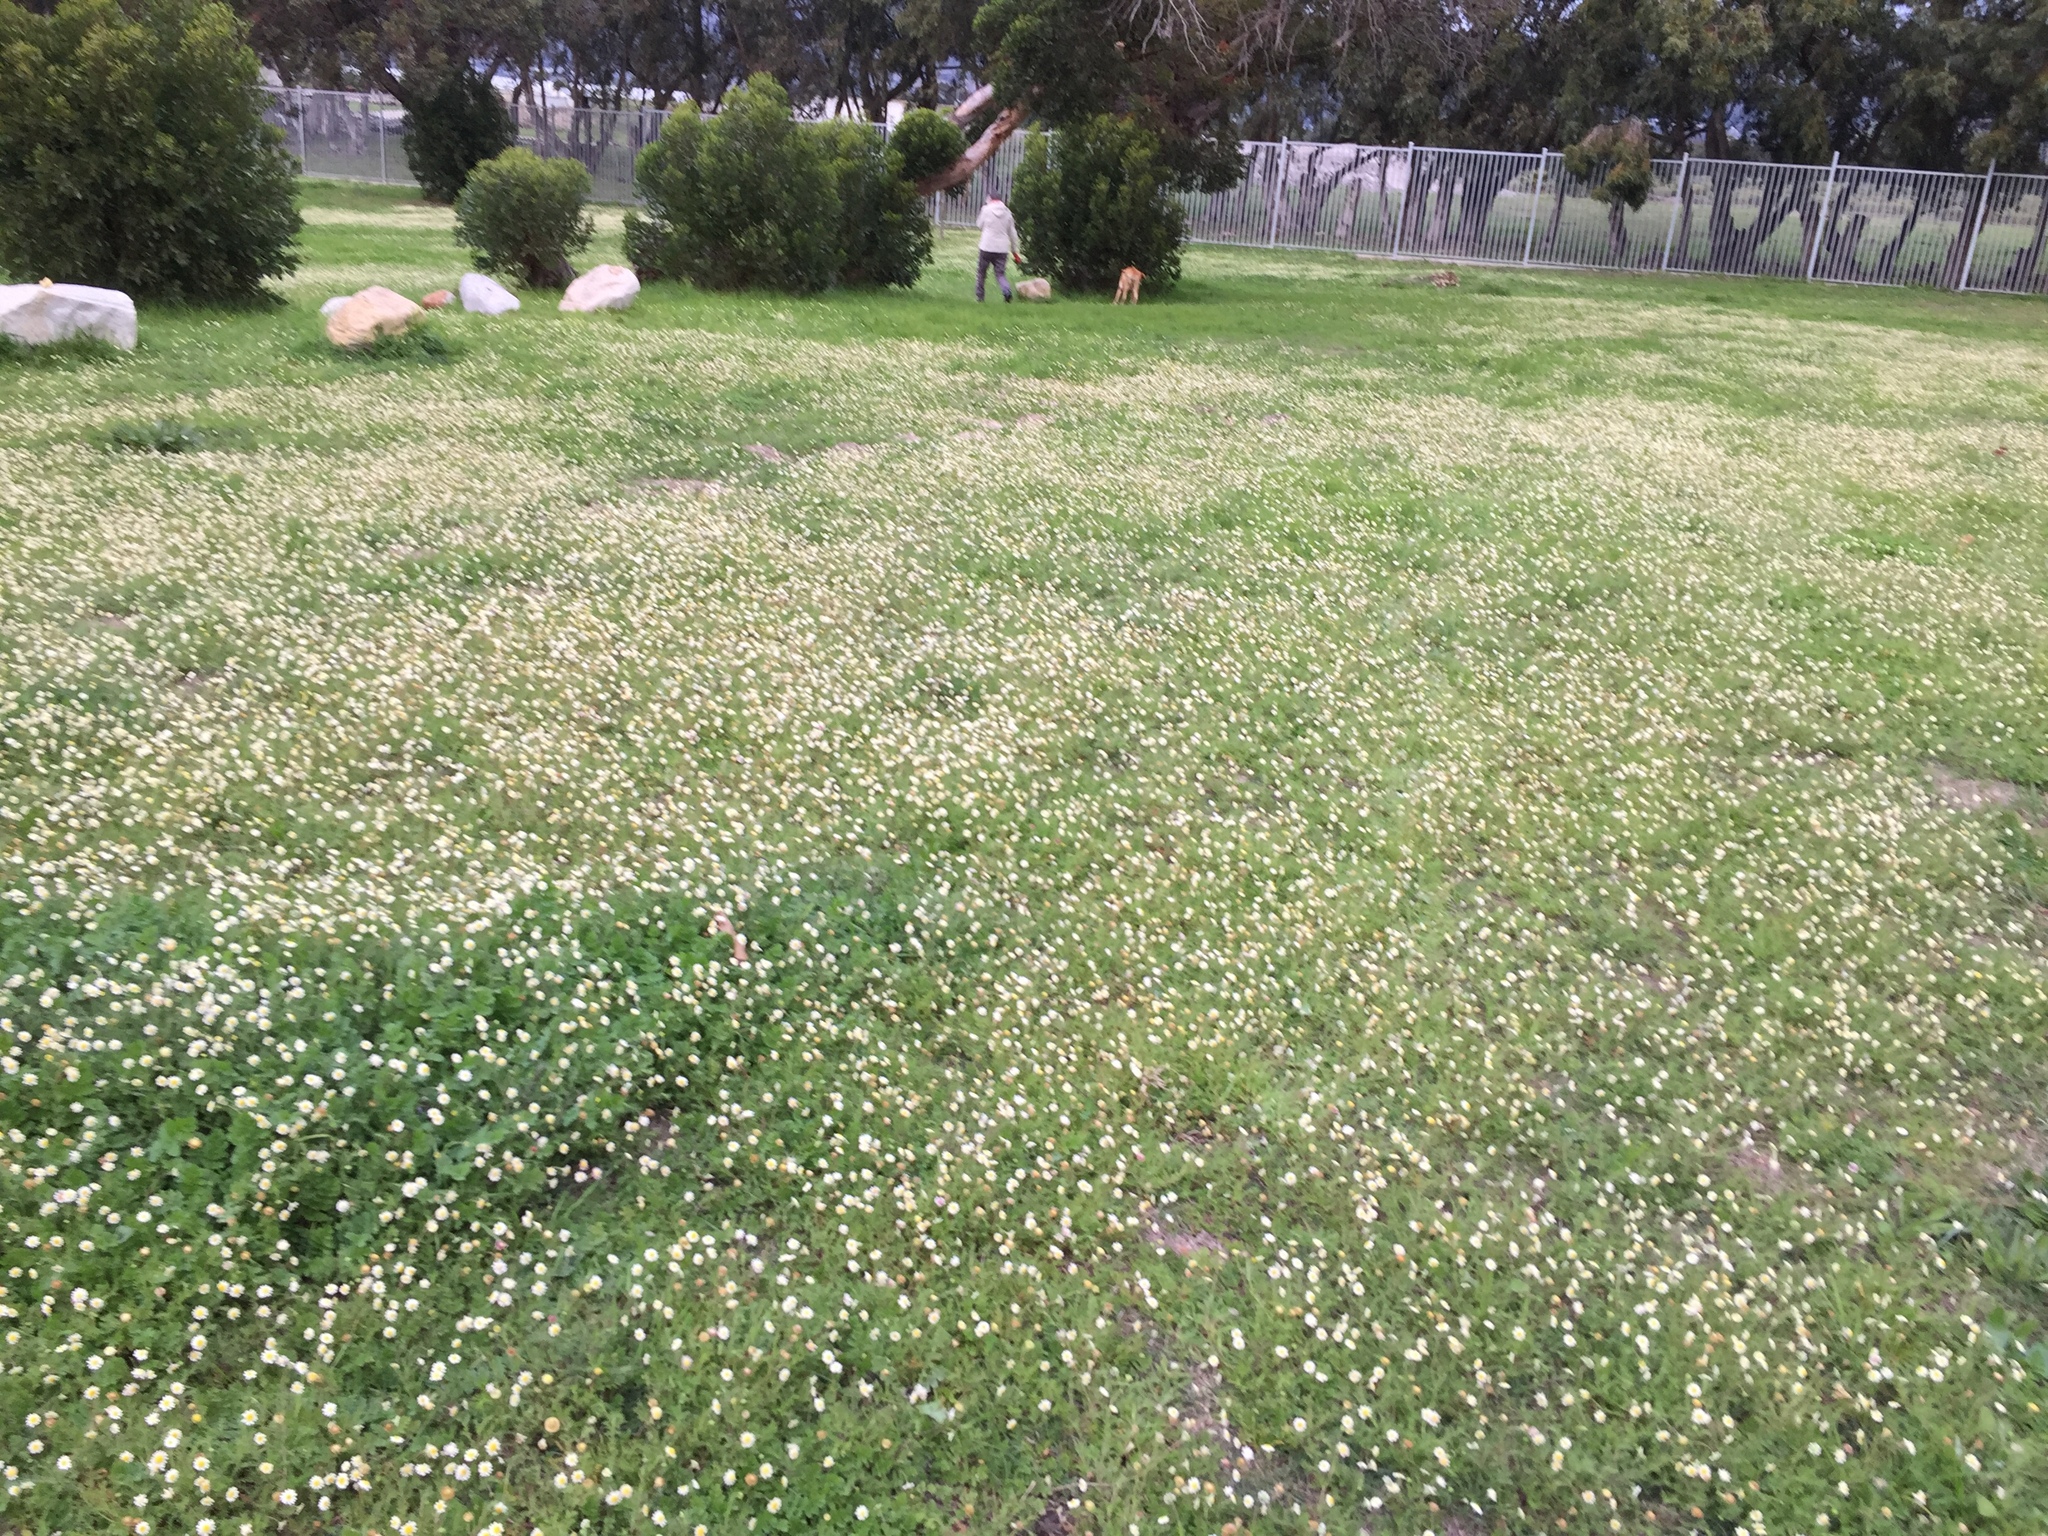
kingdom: Plantae
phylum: Tracheophyta
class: Magnoliopsida
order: Asterales
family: Asteraceae
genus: Cotula
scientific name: Cotula turbinata
